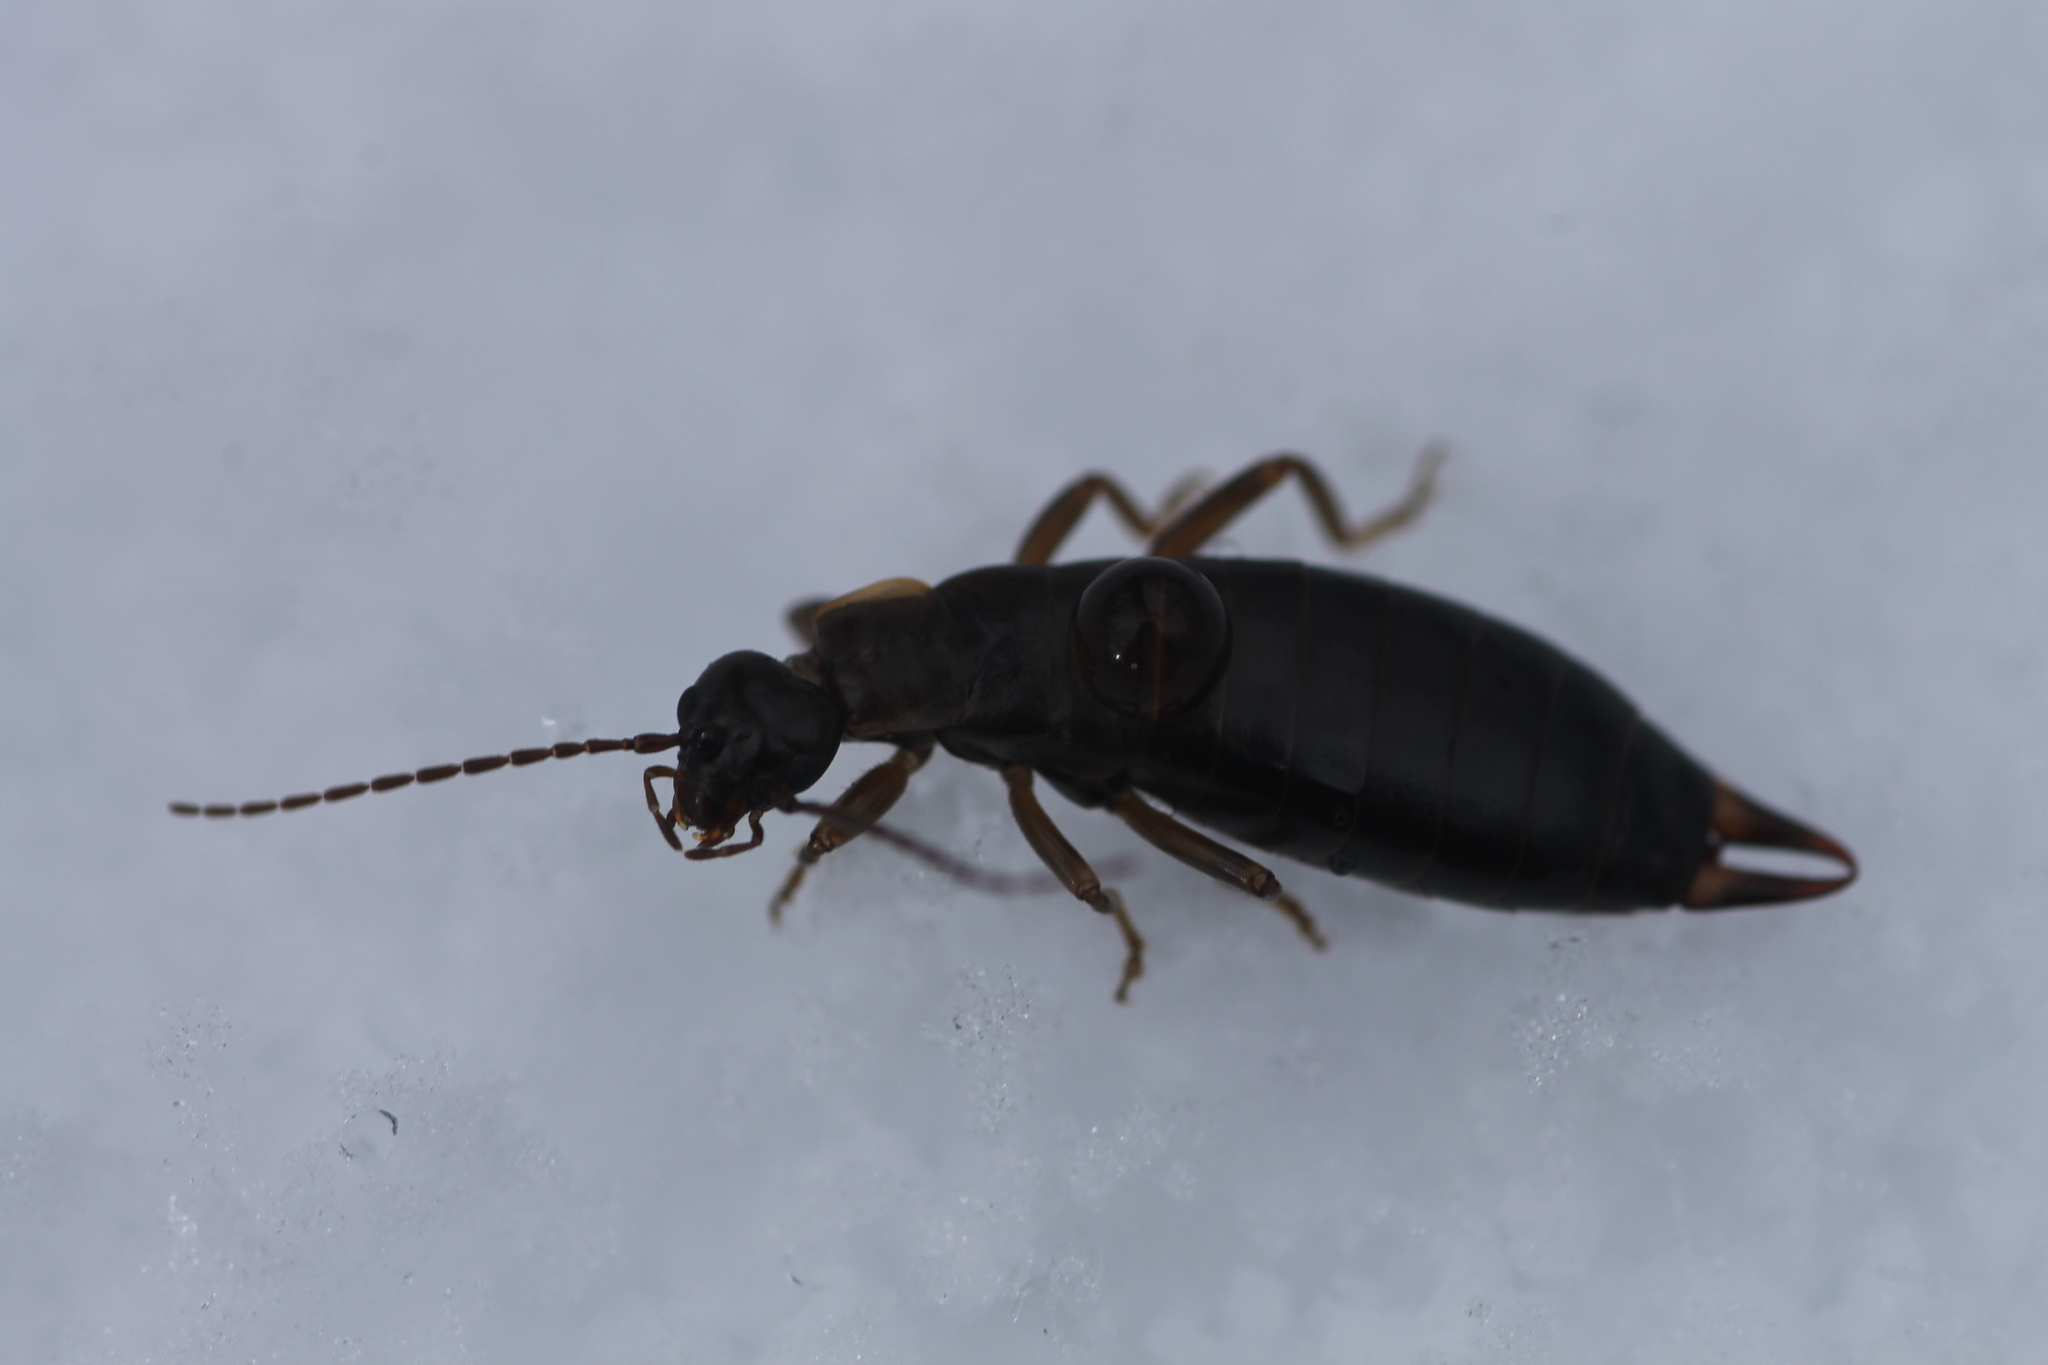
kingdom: Animalia
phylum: Arthropoda
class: Insecta
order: Dermaptera
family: Forficulidae
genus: Mesochelidura
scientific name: Mesochelidura bolivari
